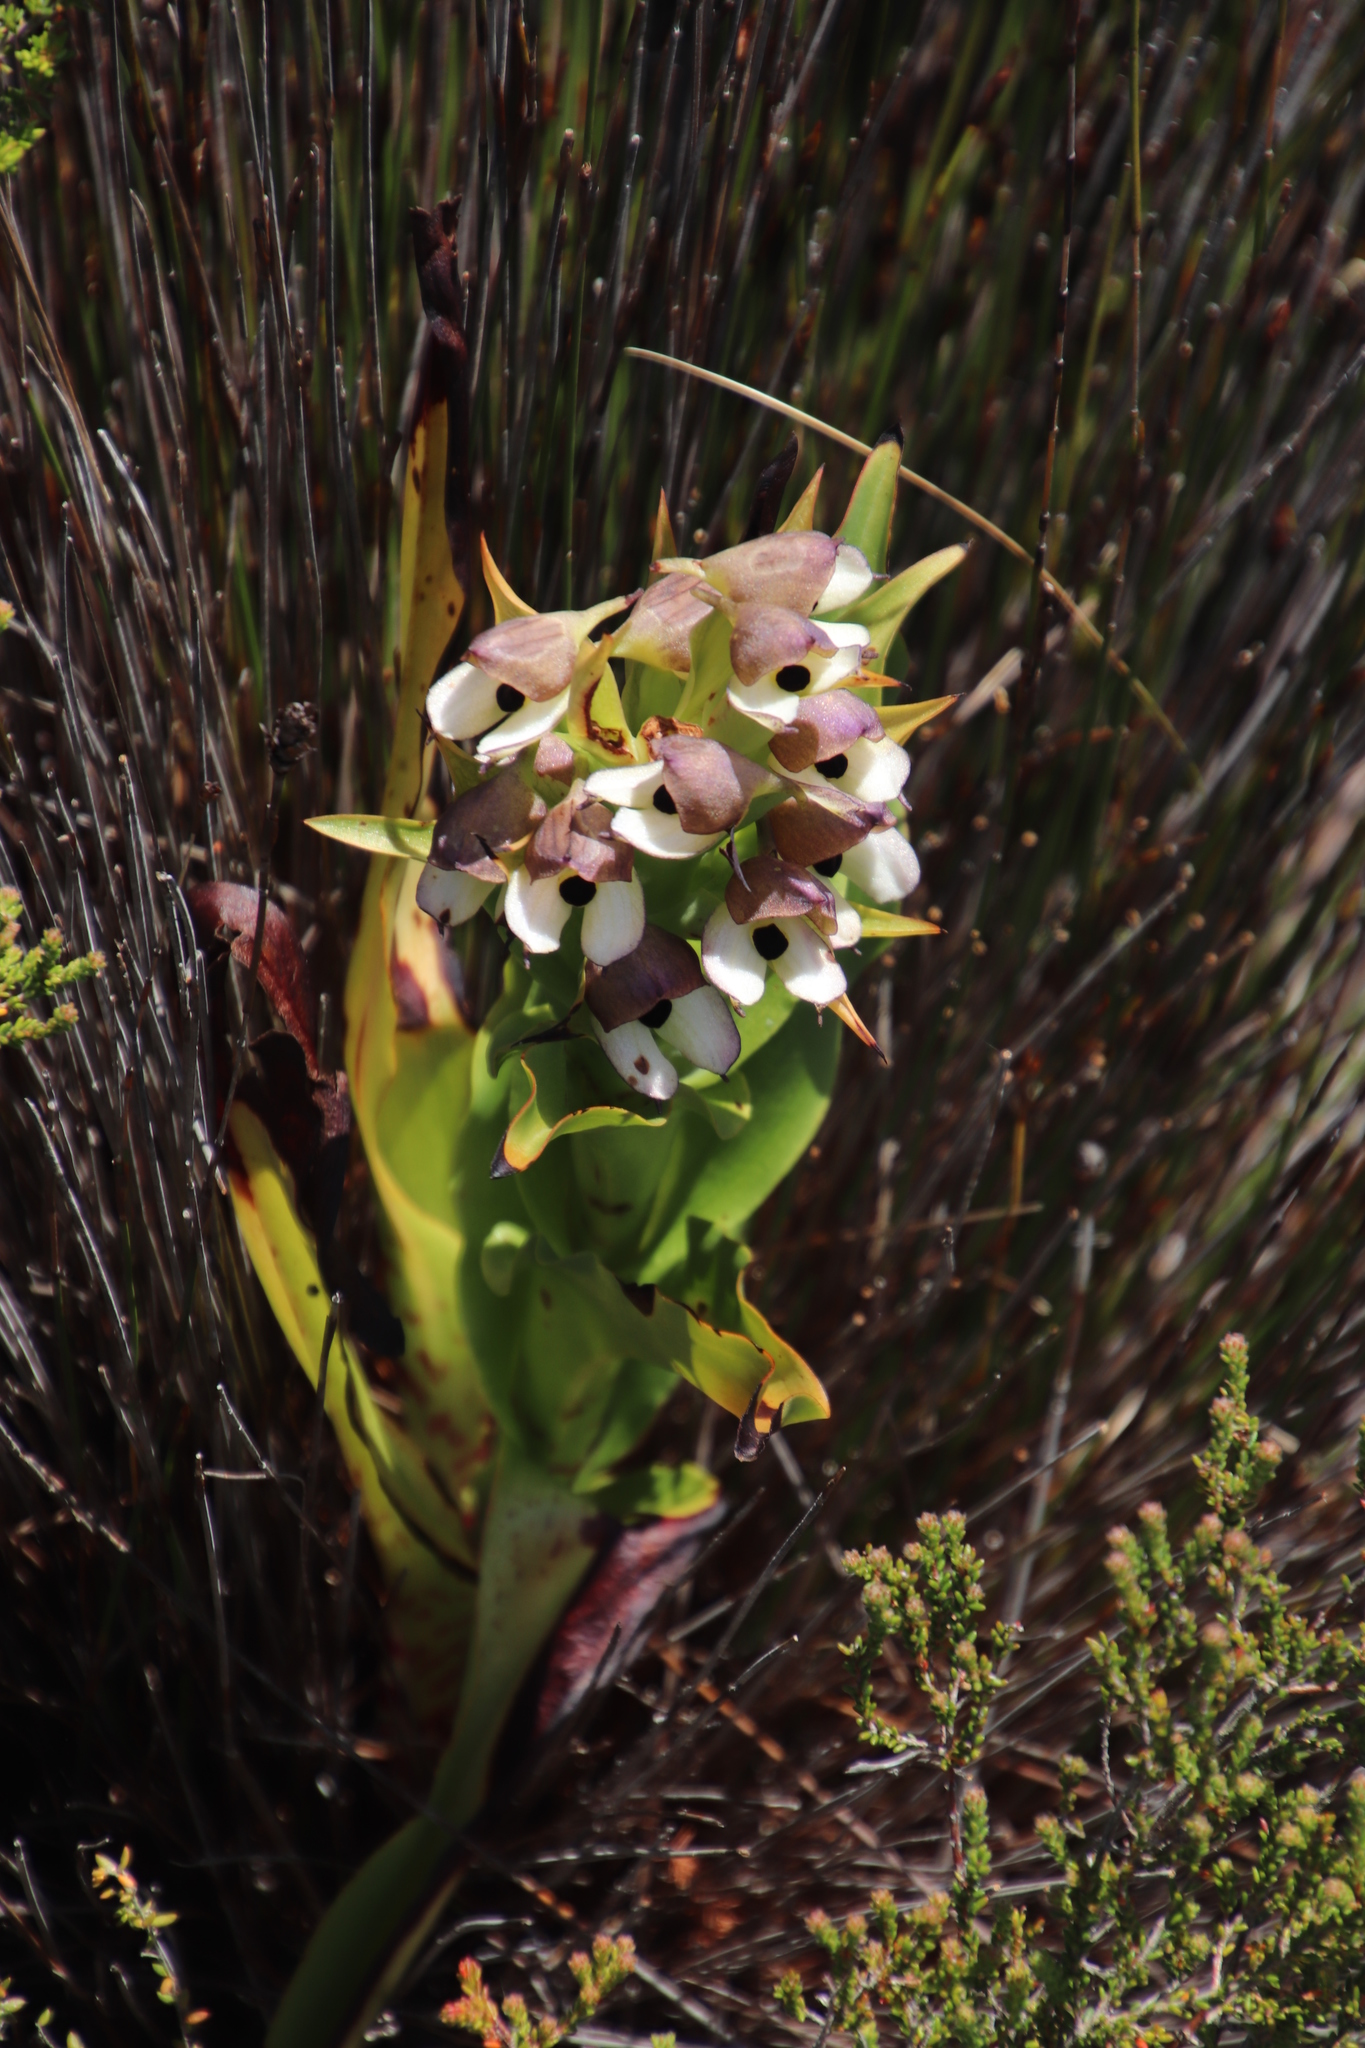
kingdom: Plantae
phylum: Tracheophyta
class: Liliopsida
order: Asparagales
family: Orchidaceae
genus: Disa
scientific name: Disa cornuta
